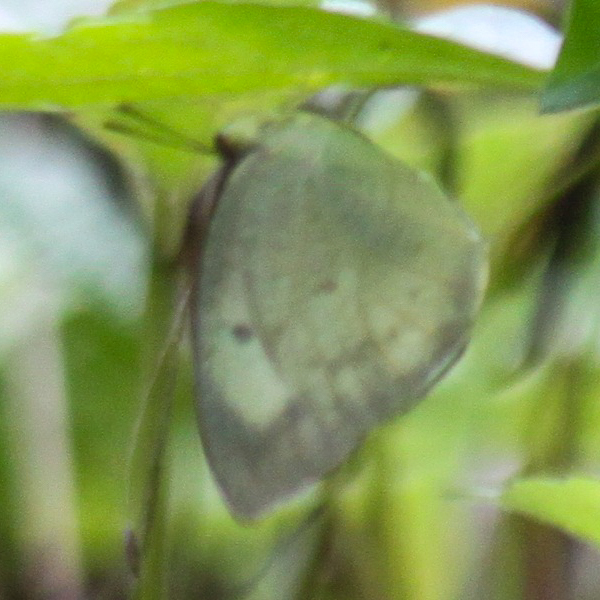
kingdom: Animalia
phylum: Arthropoda
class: Insecta
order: Lepidoptera
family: Pieridae
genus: Catopsilia
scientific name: Catopsilia pomona
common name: Common emigrant
